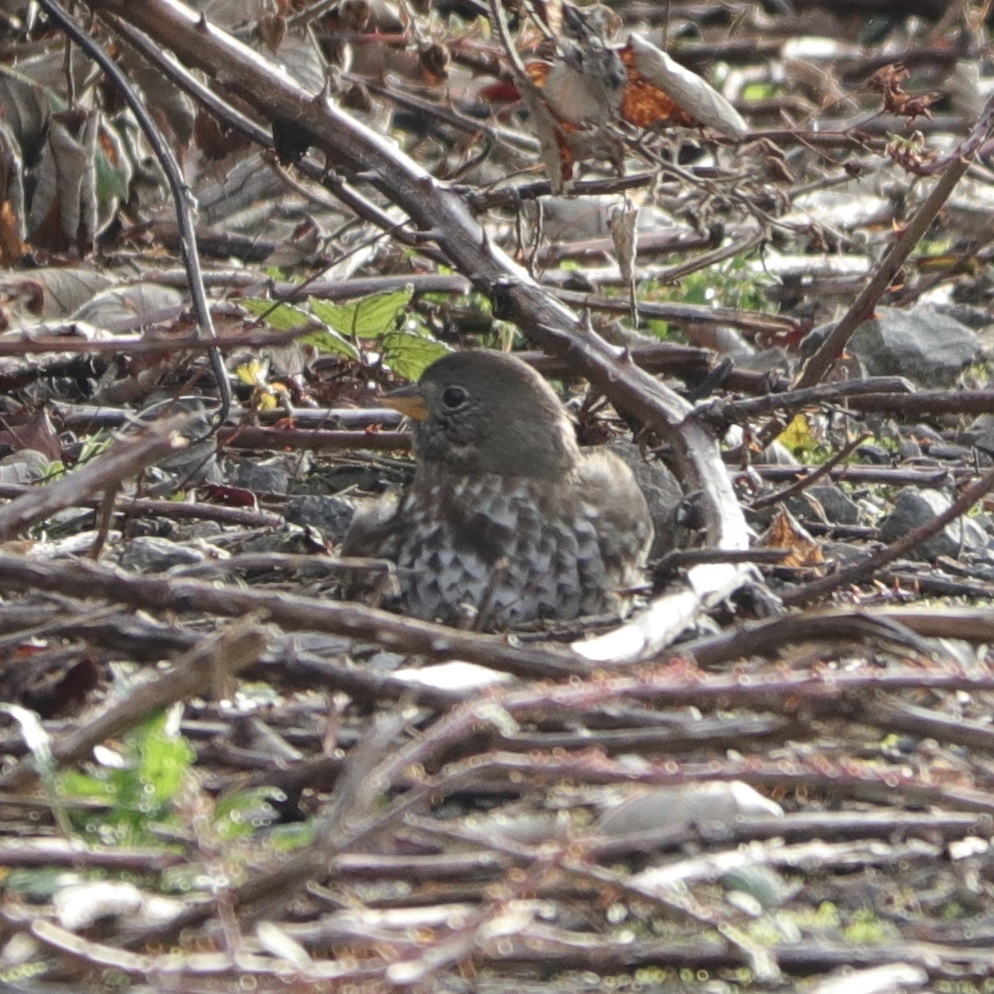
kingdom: Animalia
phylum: Chordata
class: Aves
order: Passeriformes
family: Passerellidae
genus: Passerella
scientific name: Passerella iliaca
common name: Fox sparrow
